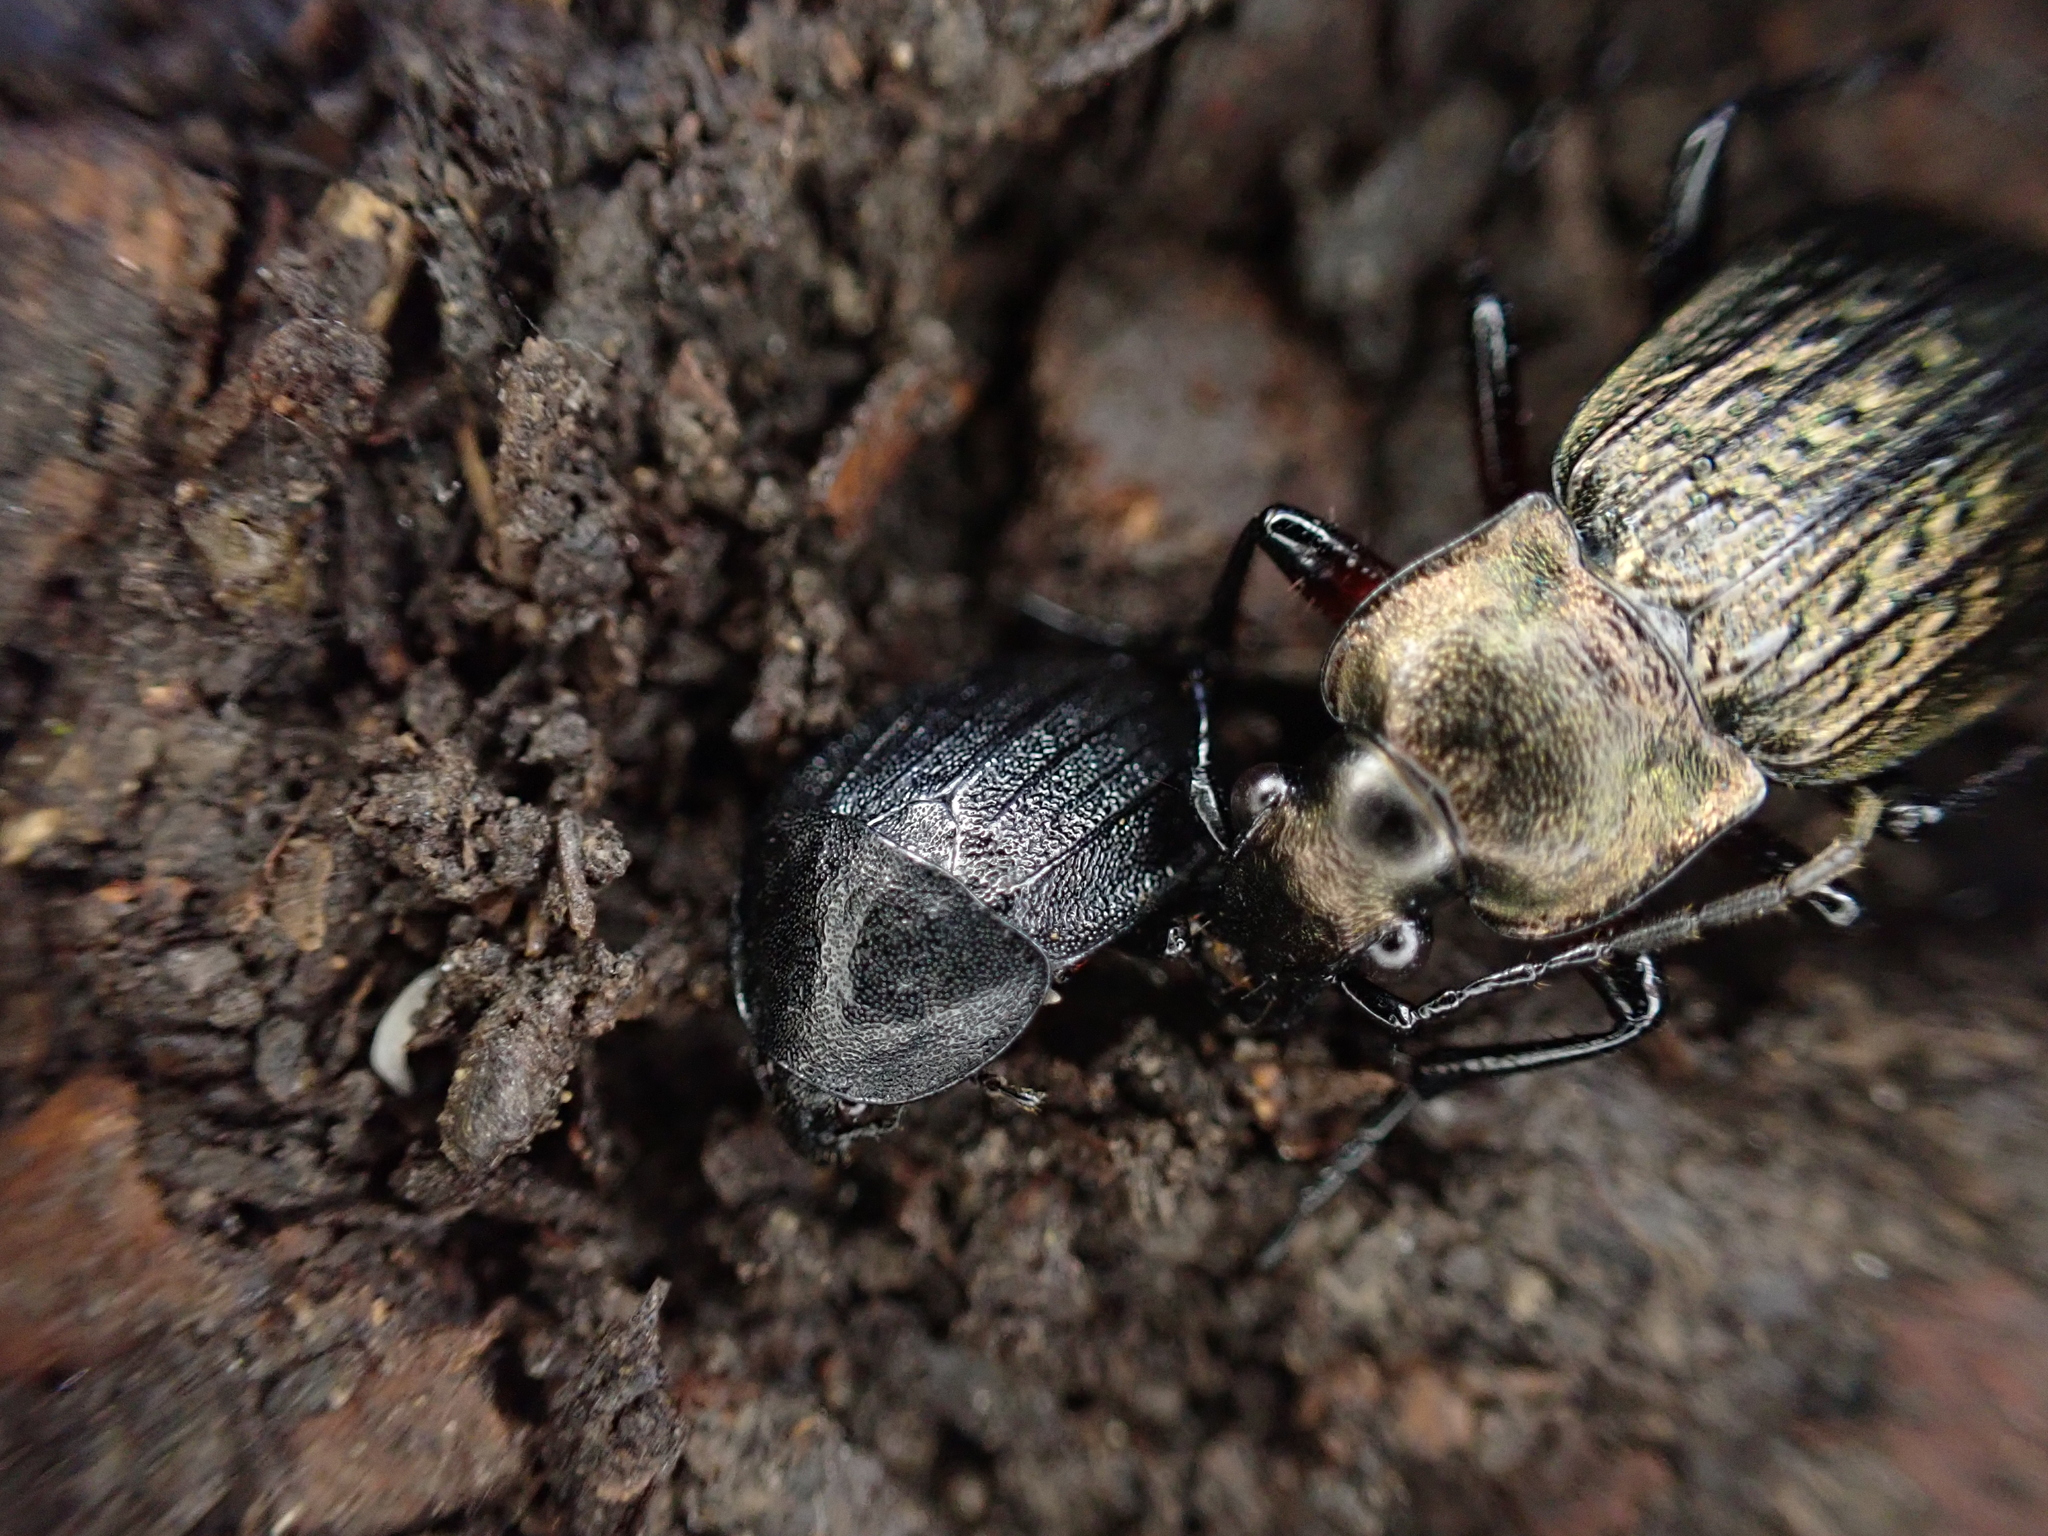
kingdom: Animalia
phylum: Arthropoda
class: Insecta
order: Coleoptera
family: Staphylinidae
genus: Silpha
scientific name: Silpha atrata
